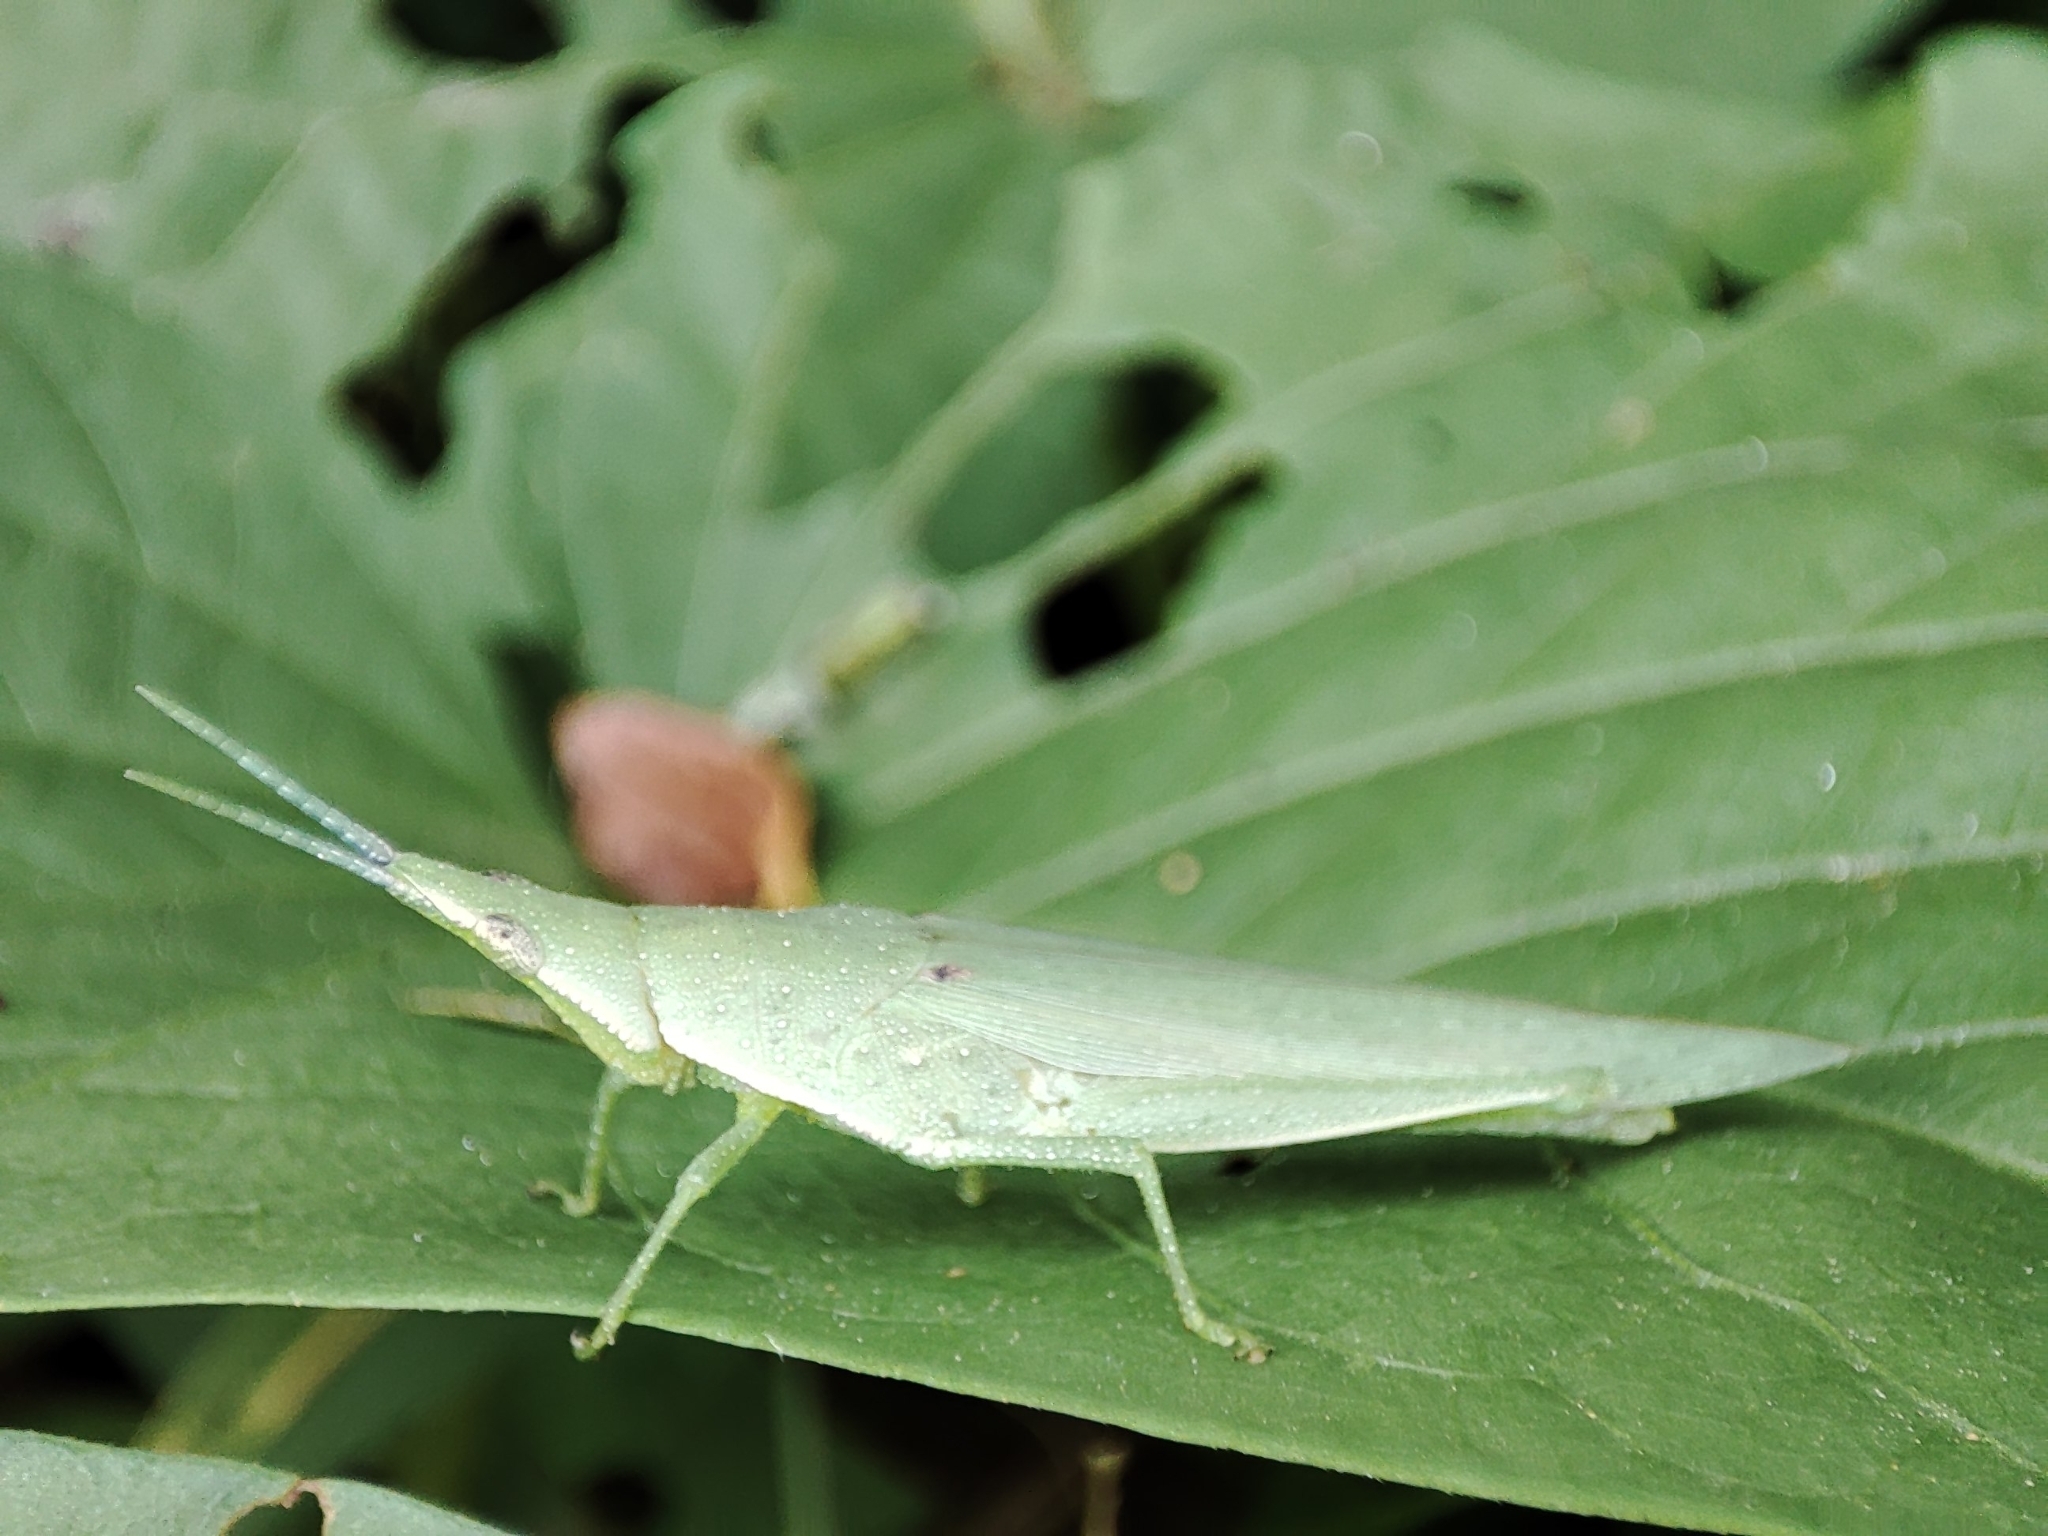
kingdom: Animalia
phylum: Arthropoda
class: Insecta
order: Orthoptera
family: Pyrgomorphidae
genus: Atractomorpha
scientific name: Atractomorpha sinensis
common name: Pinkwinged grasshopper
